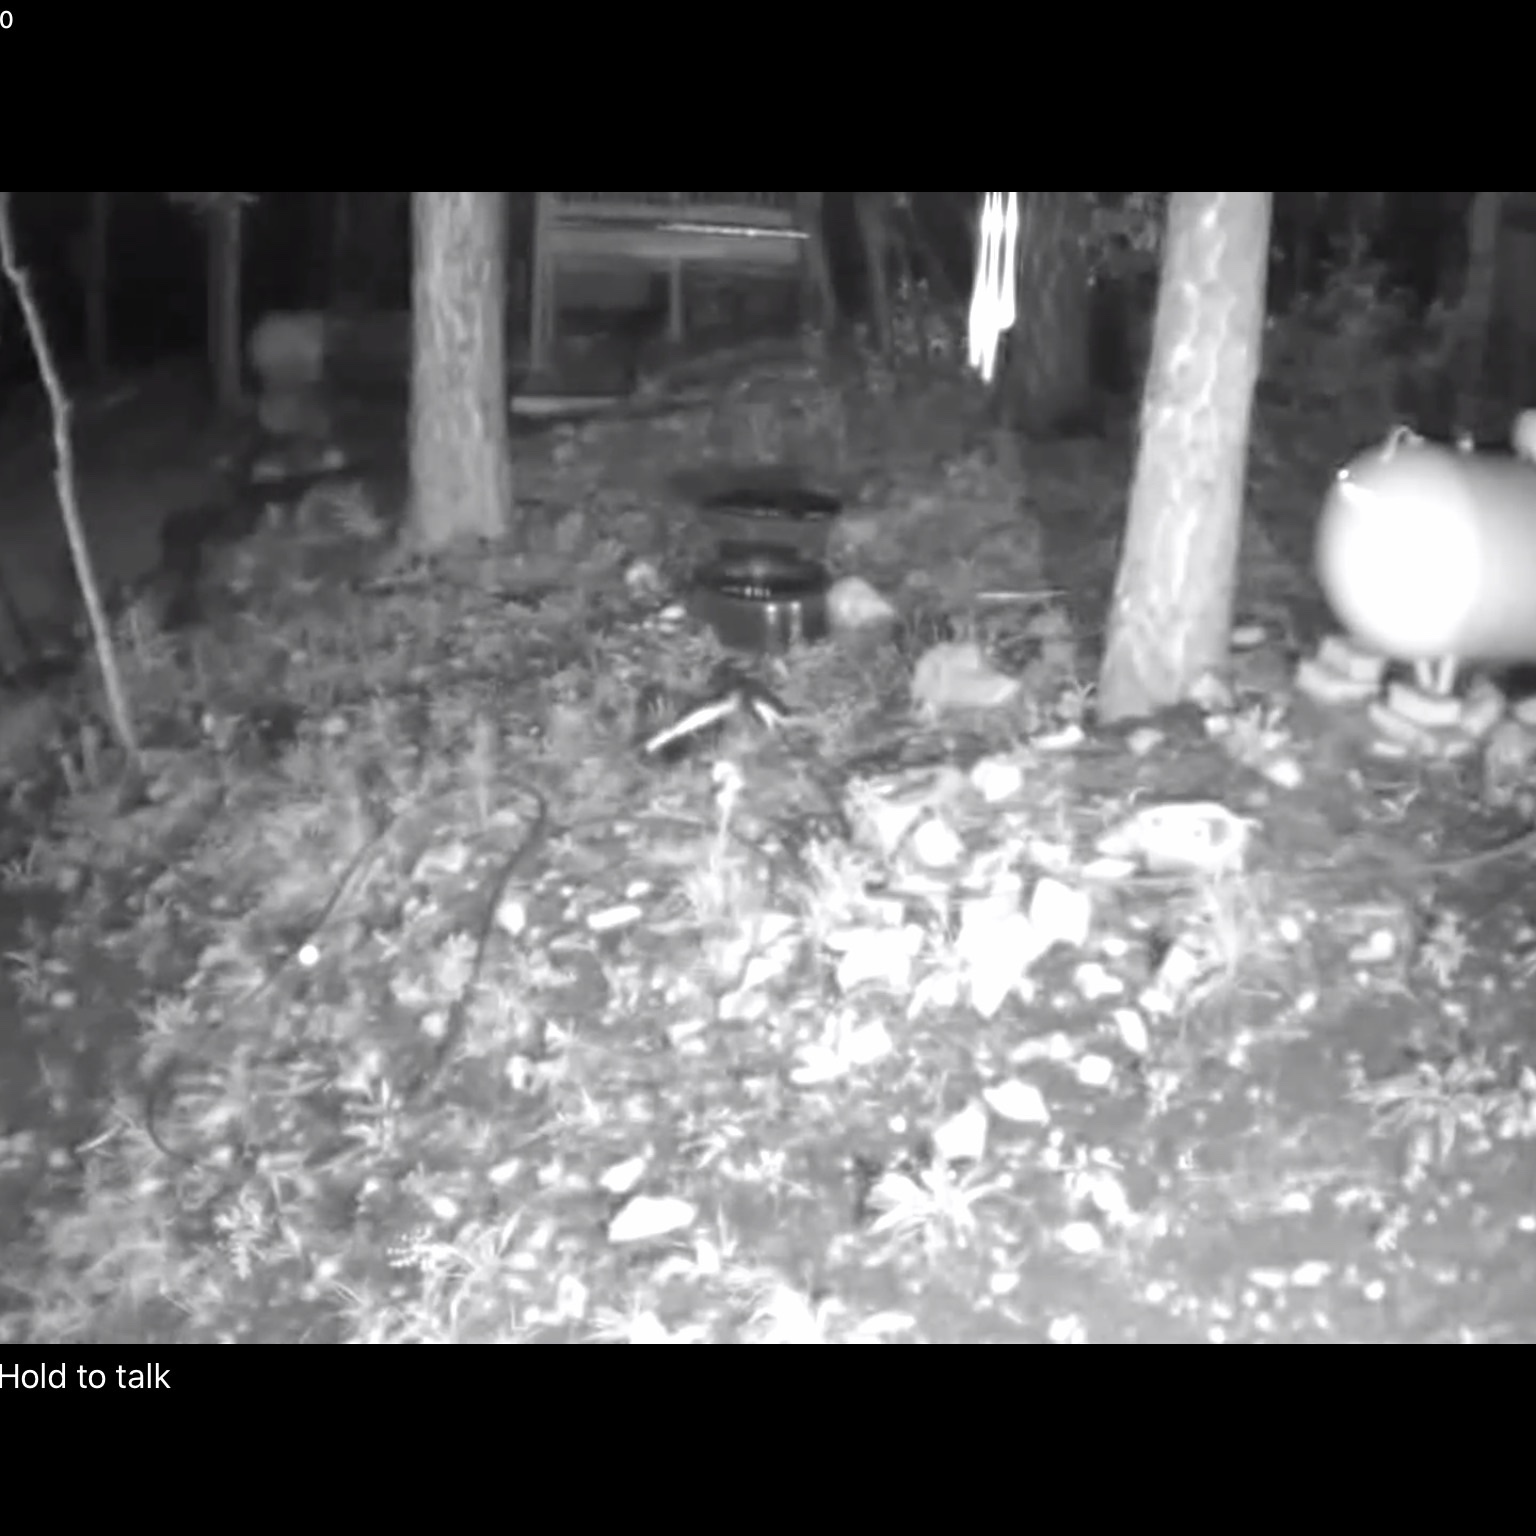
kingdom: Animalia
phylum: Chordata
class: Mammalia
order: Carnivora
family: Mephitidae
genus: Mephitis
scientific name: Mephitis mephitis
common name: Striped skunk
